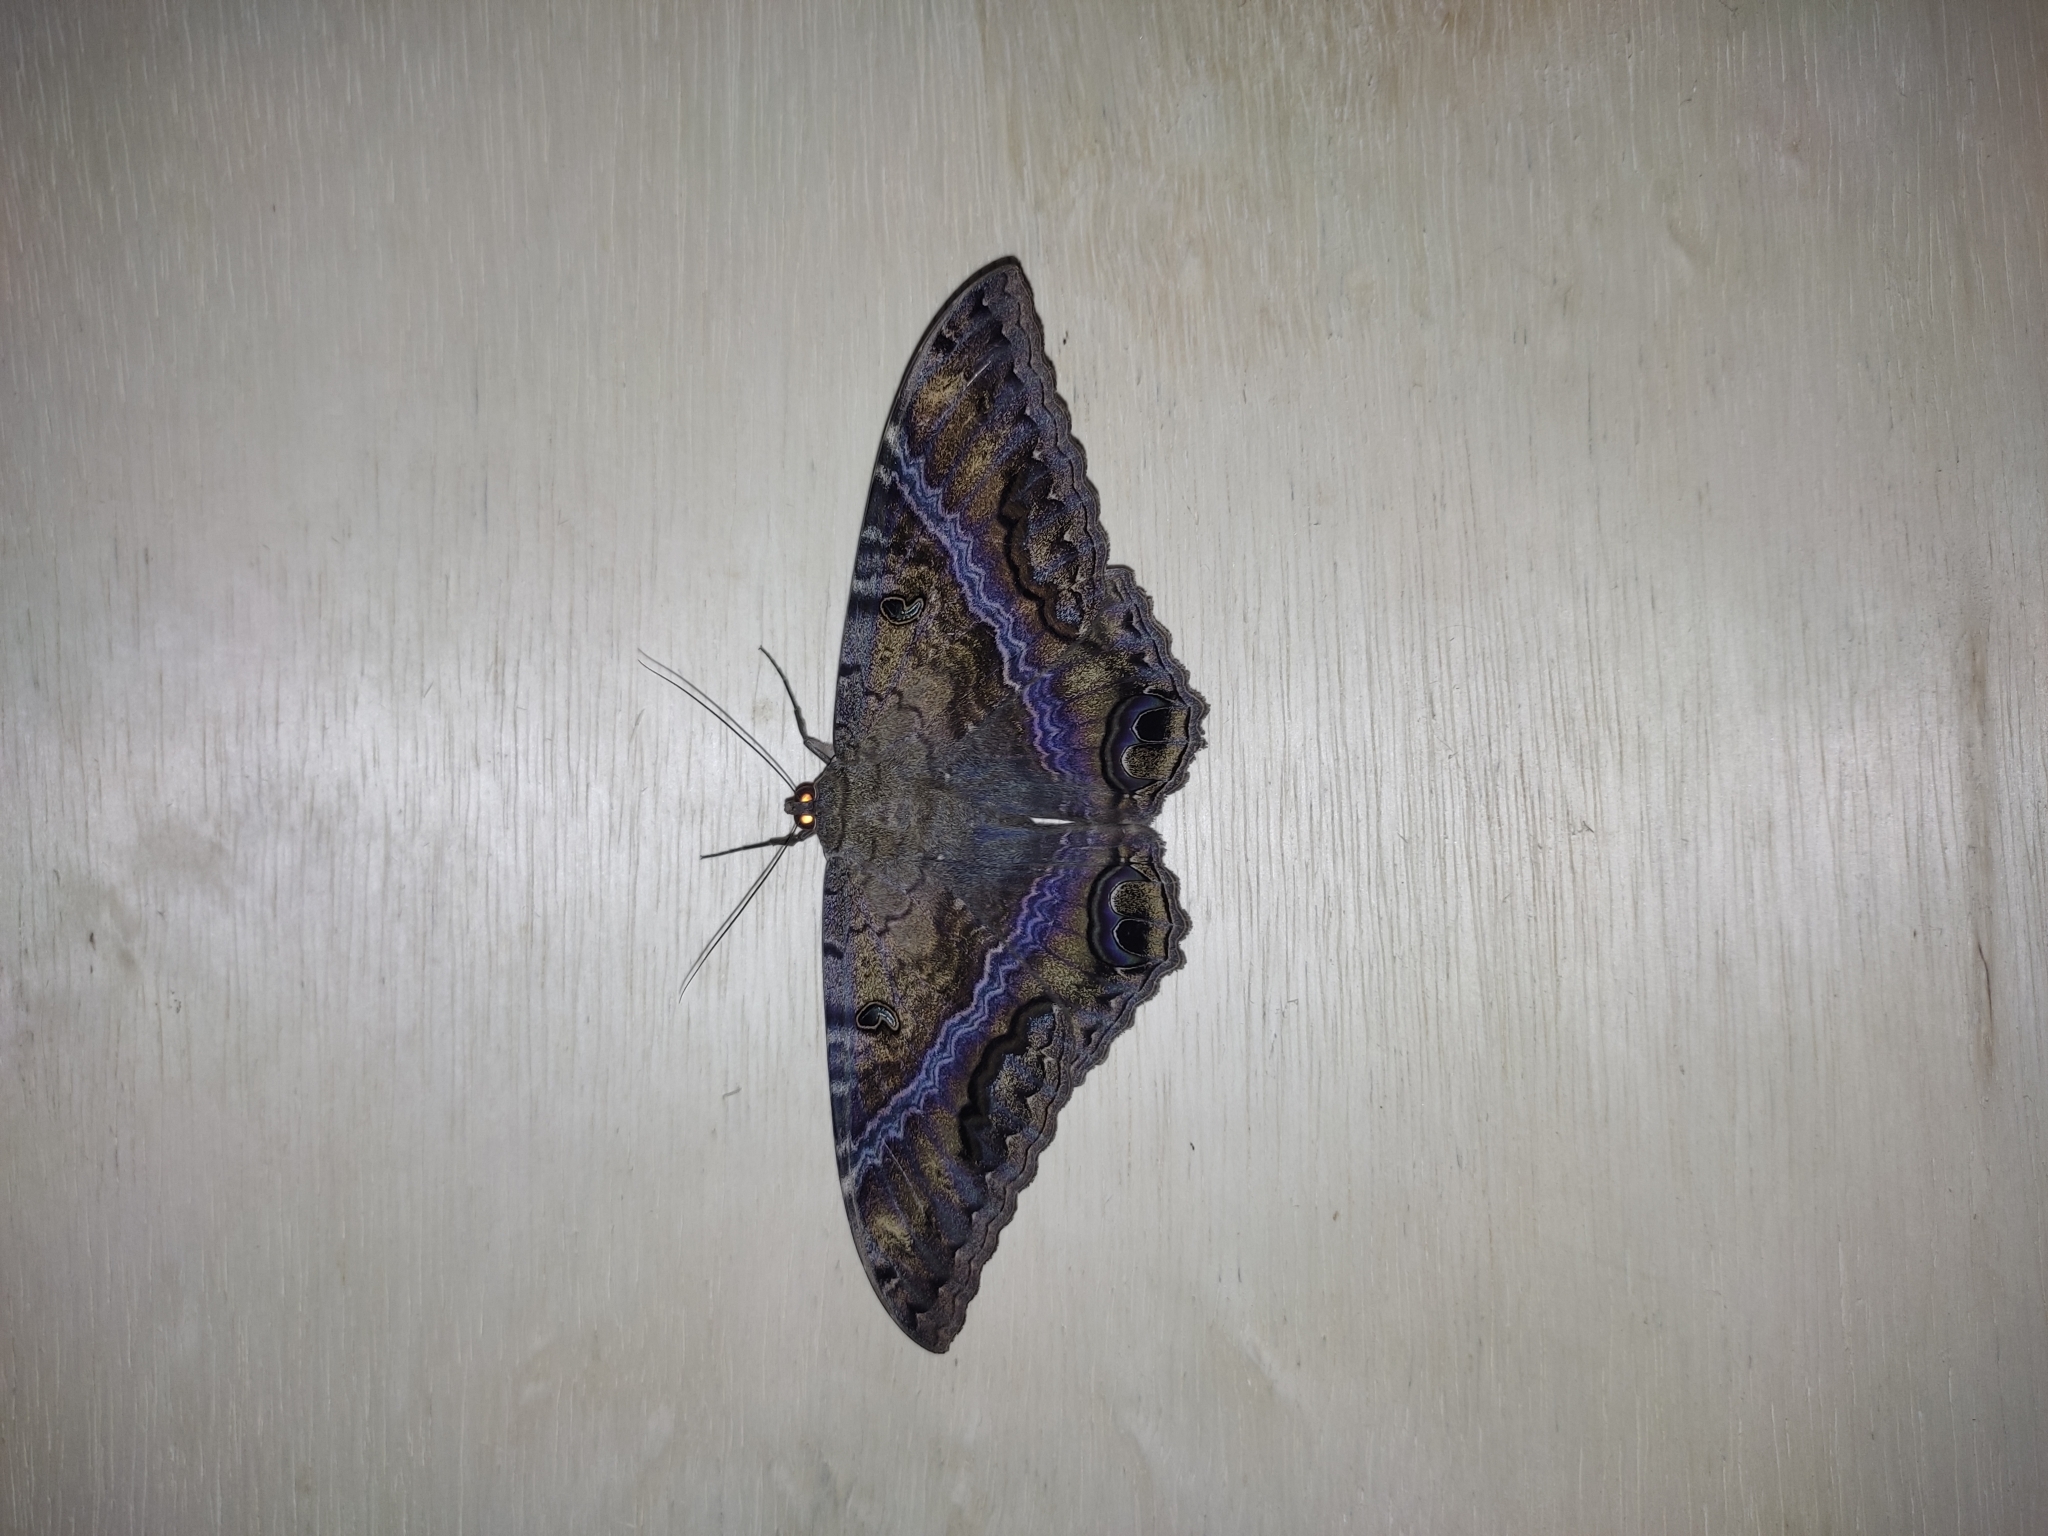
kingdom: Animalia
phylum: Arthropoda
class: Insecta
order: Lepidoptera
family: Erebidae
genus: Ascalapha
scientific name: Ascalapha odorata
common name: Black witch
